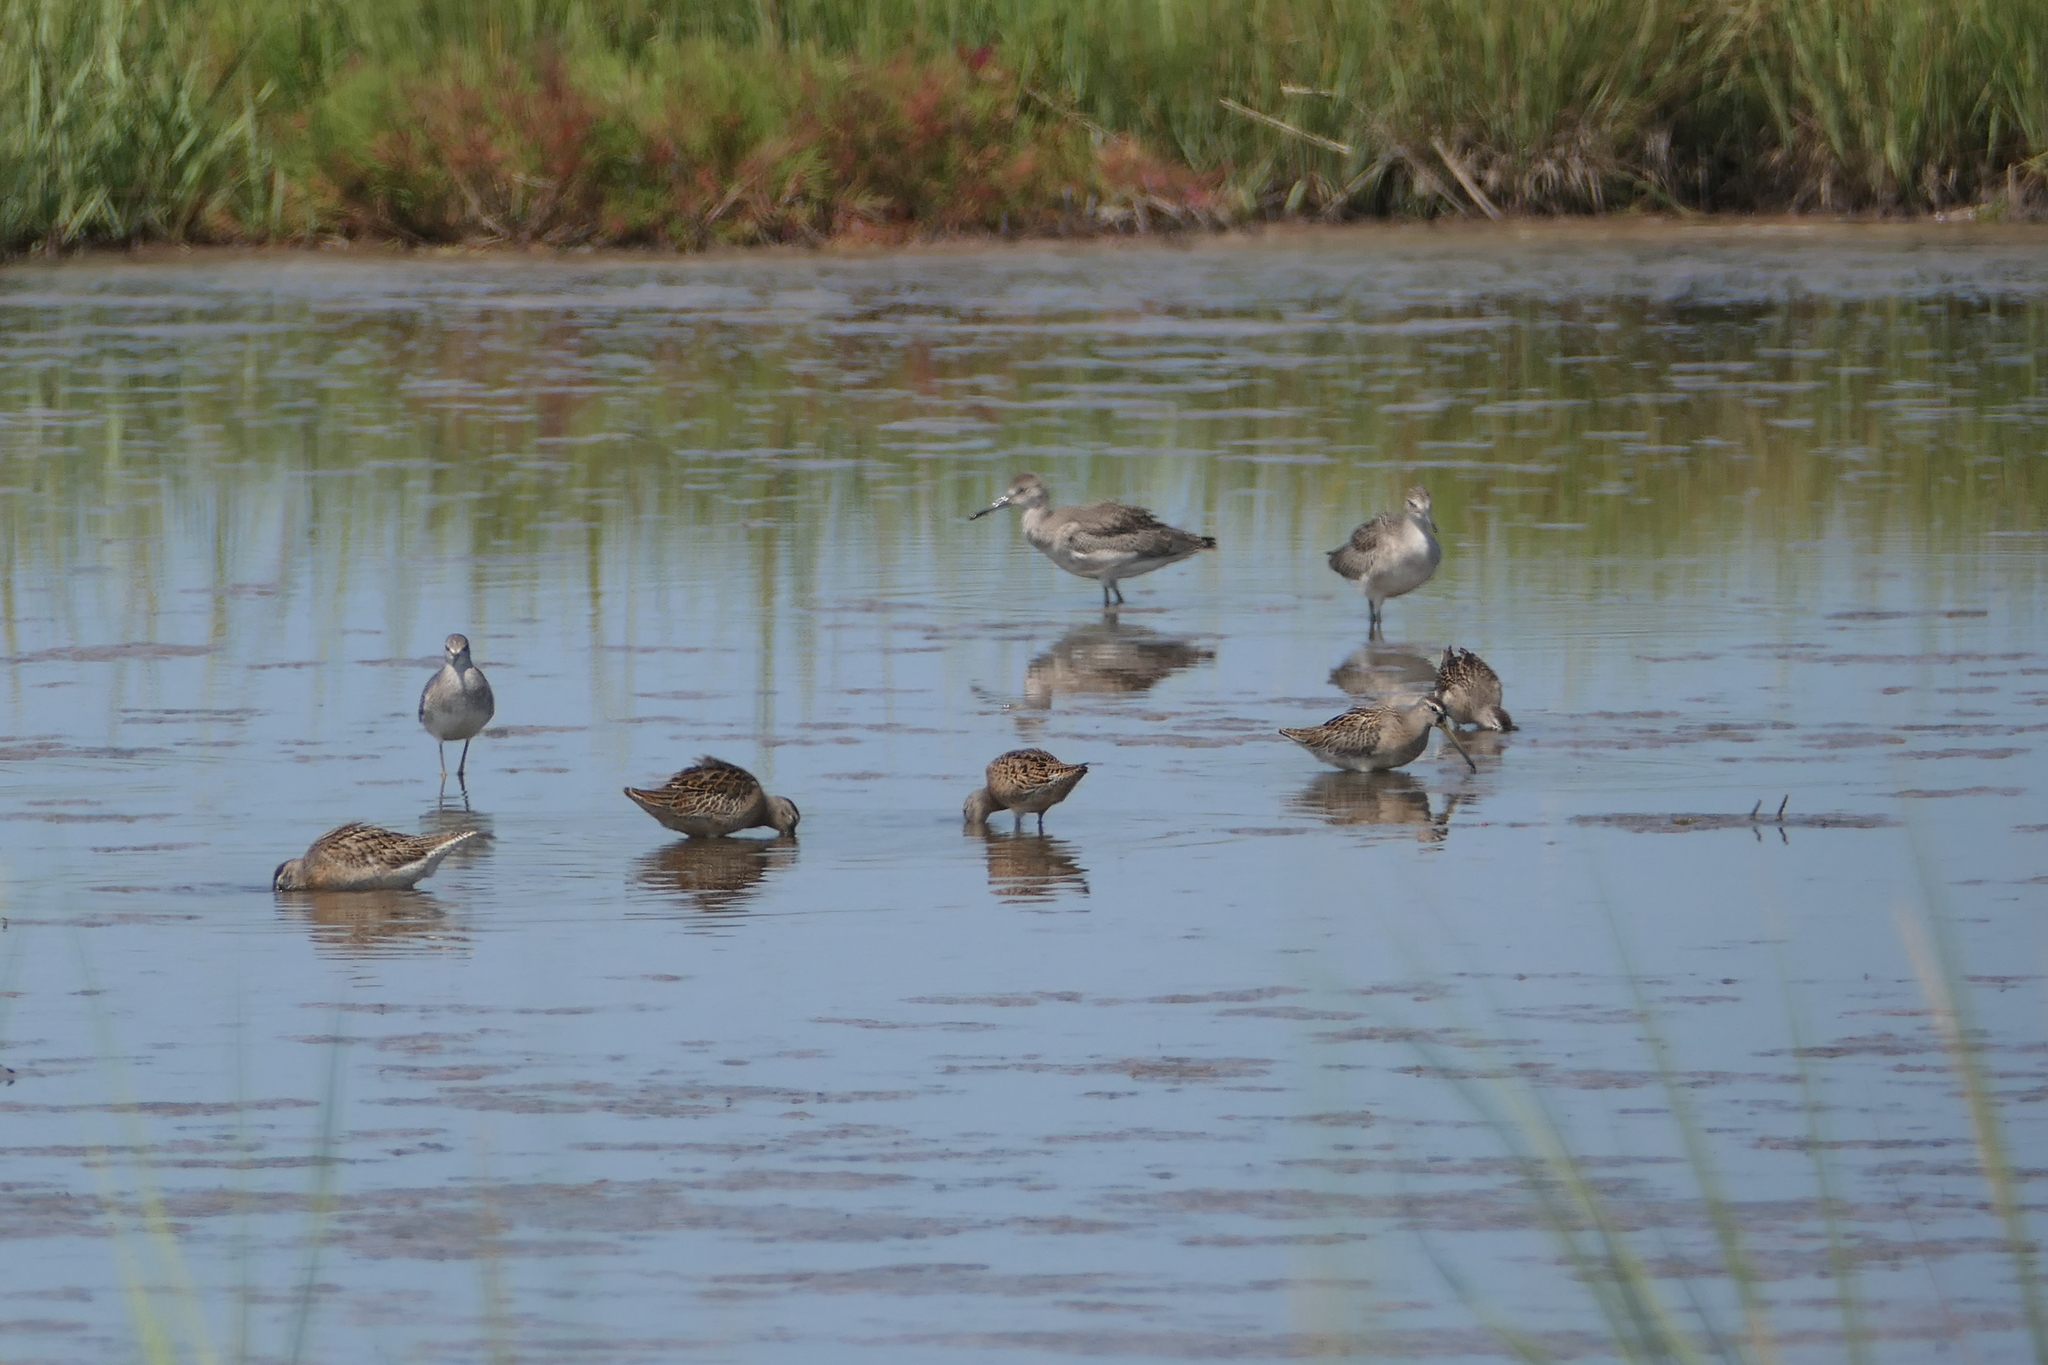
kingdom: Animalia
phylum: Chordata
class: Aves
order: Charadriiformes
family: Scolopacidae
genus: Tringa
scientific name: Tringa semipalmata
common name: Willet
